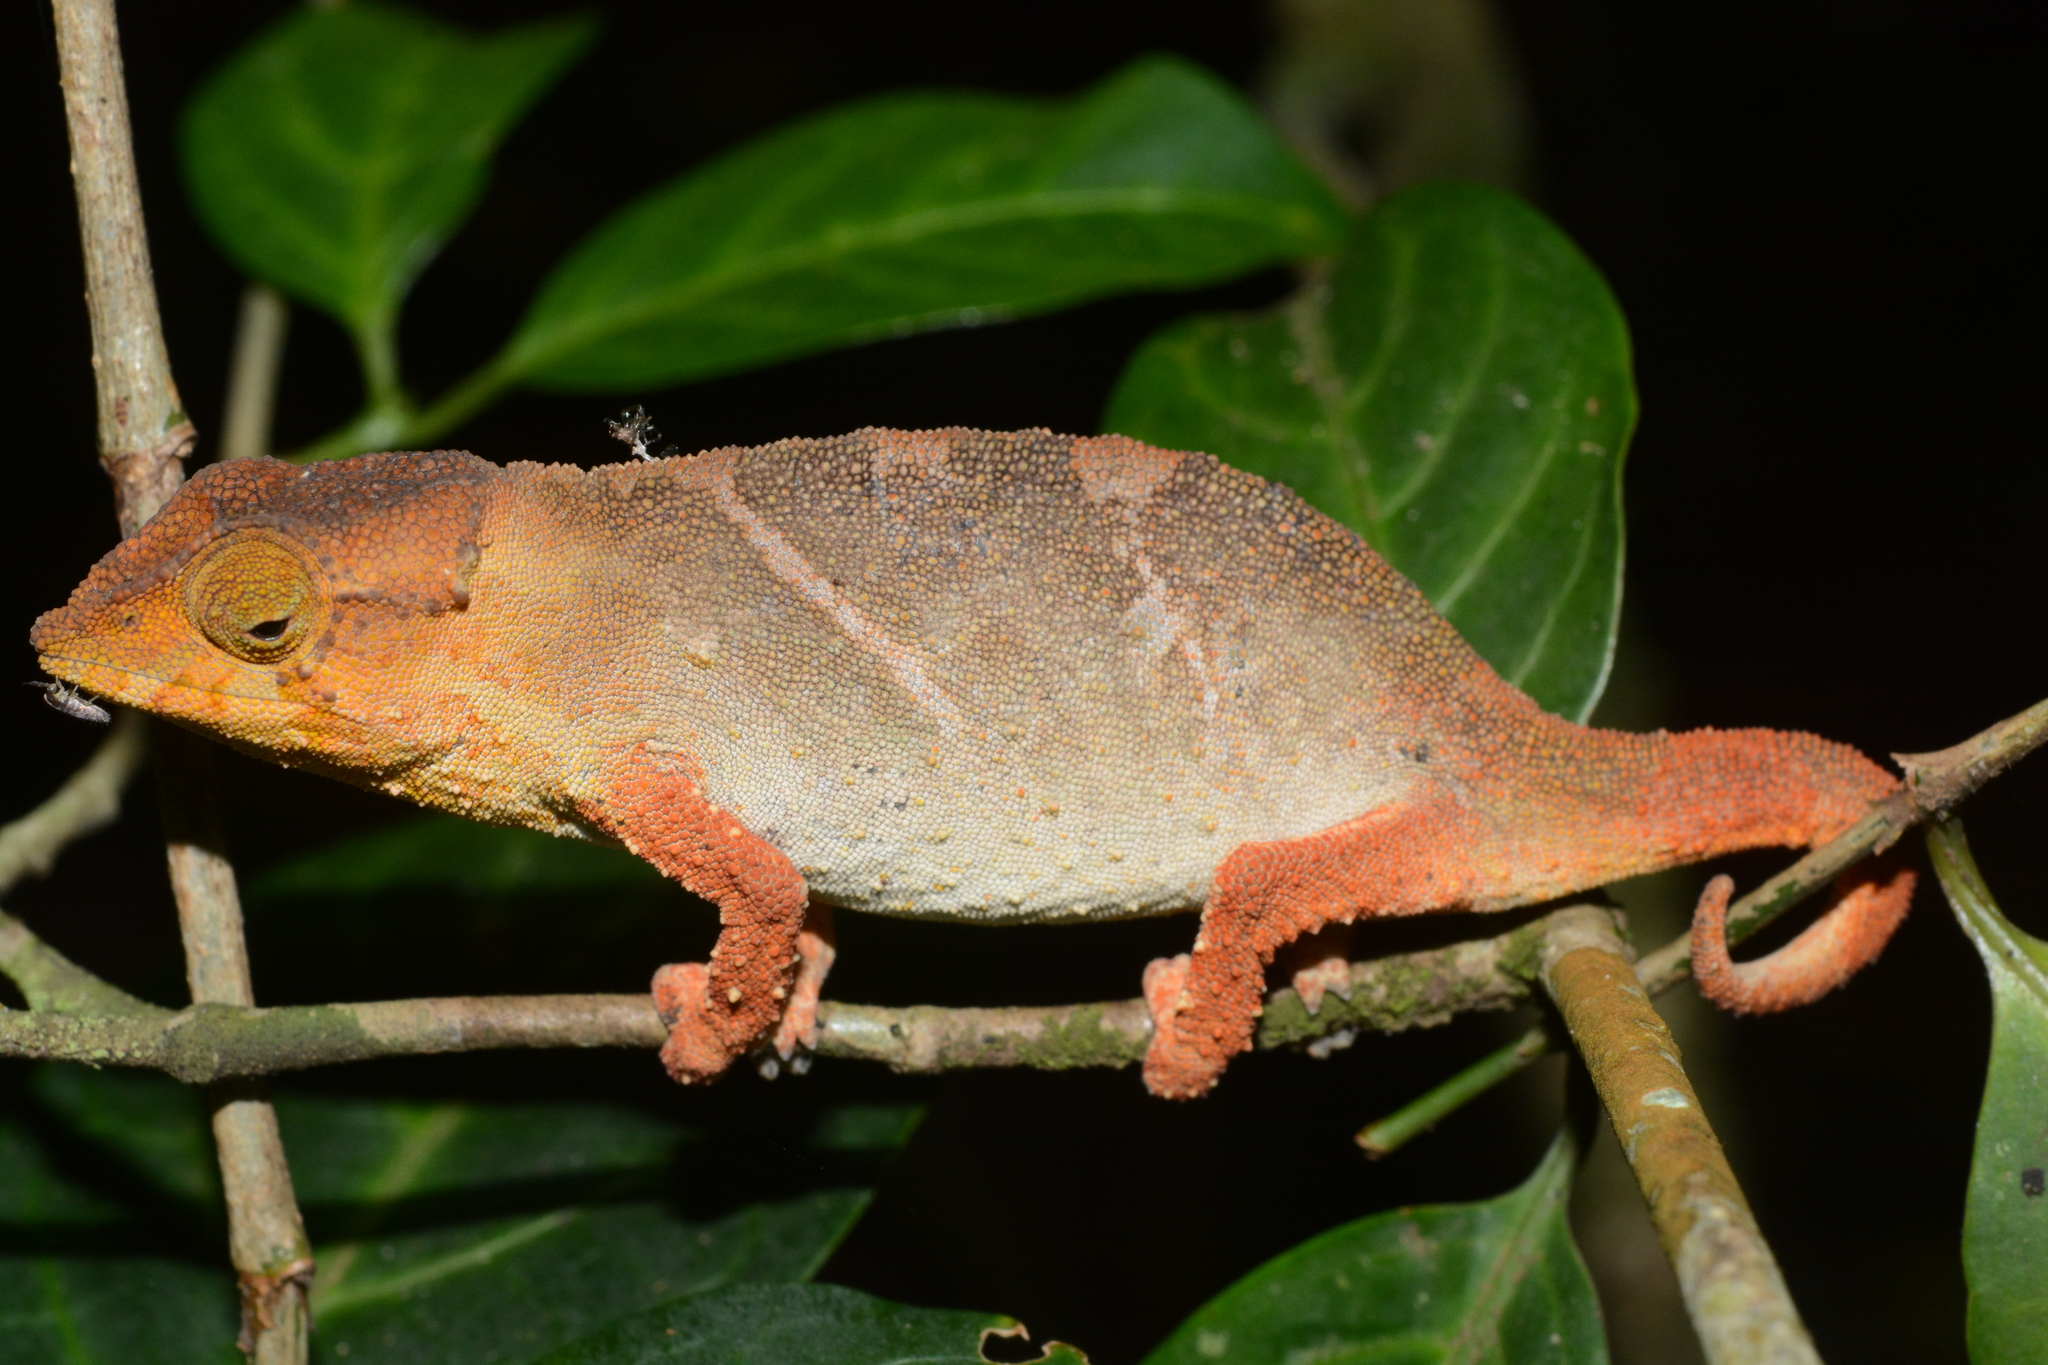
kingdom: Animalia
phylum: Chordata
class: Squamata
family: Chamaeleonidae
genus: Rhampholeon
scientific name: Rhampholeon viridis
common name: Green pygmy chameleon
